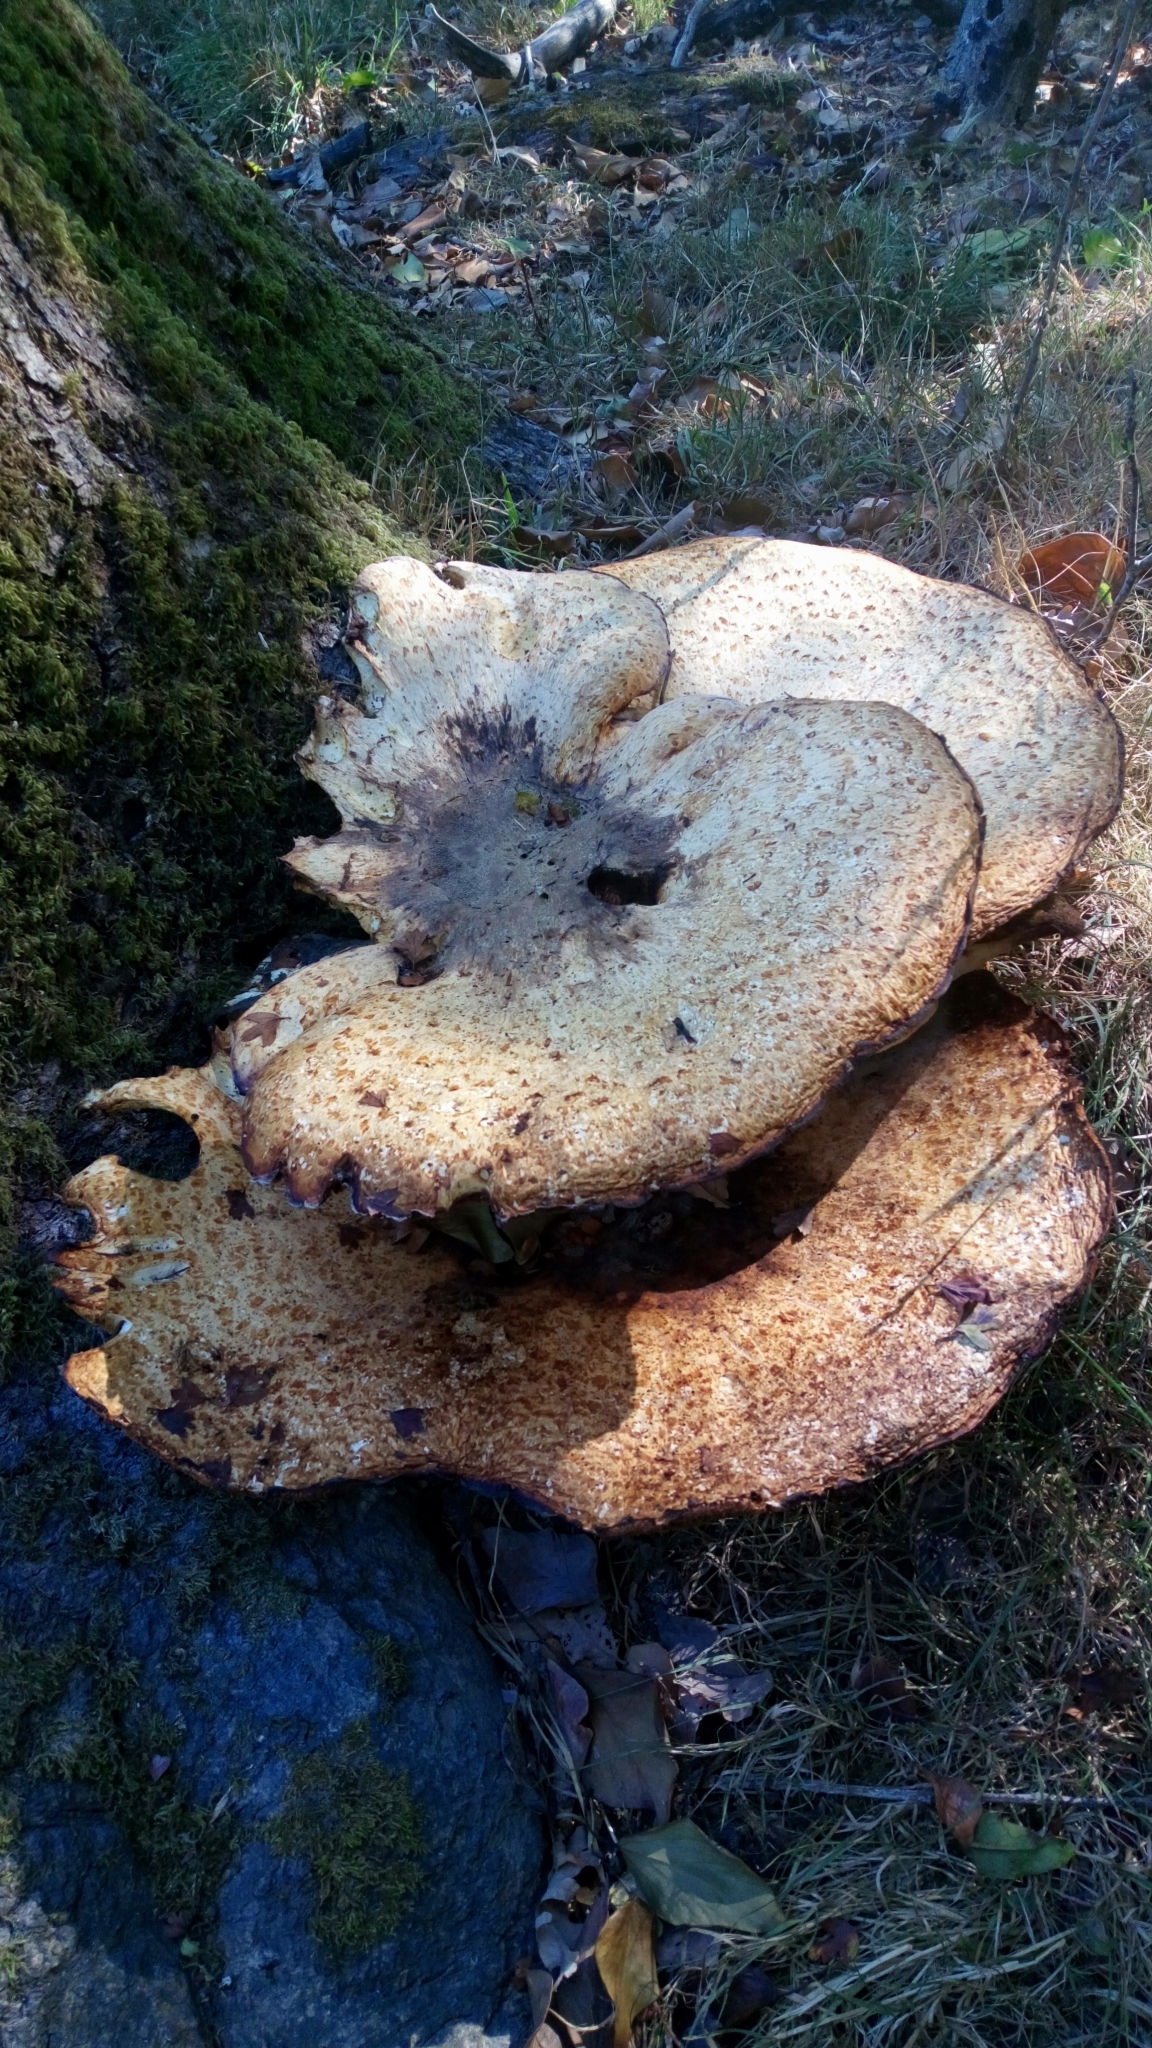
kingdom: Fungi
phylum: Basidiomycota
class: Agaricomycetes
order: Polyporales
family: Polyporaceae
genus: Cerioporus
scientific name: Cerioporus squamosus
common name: Dryad's saddle
